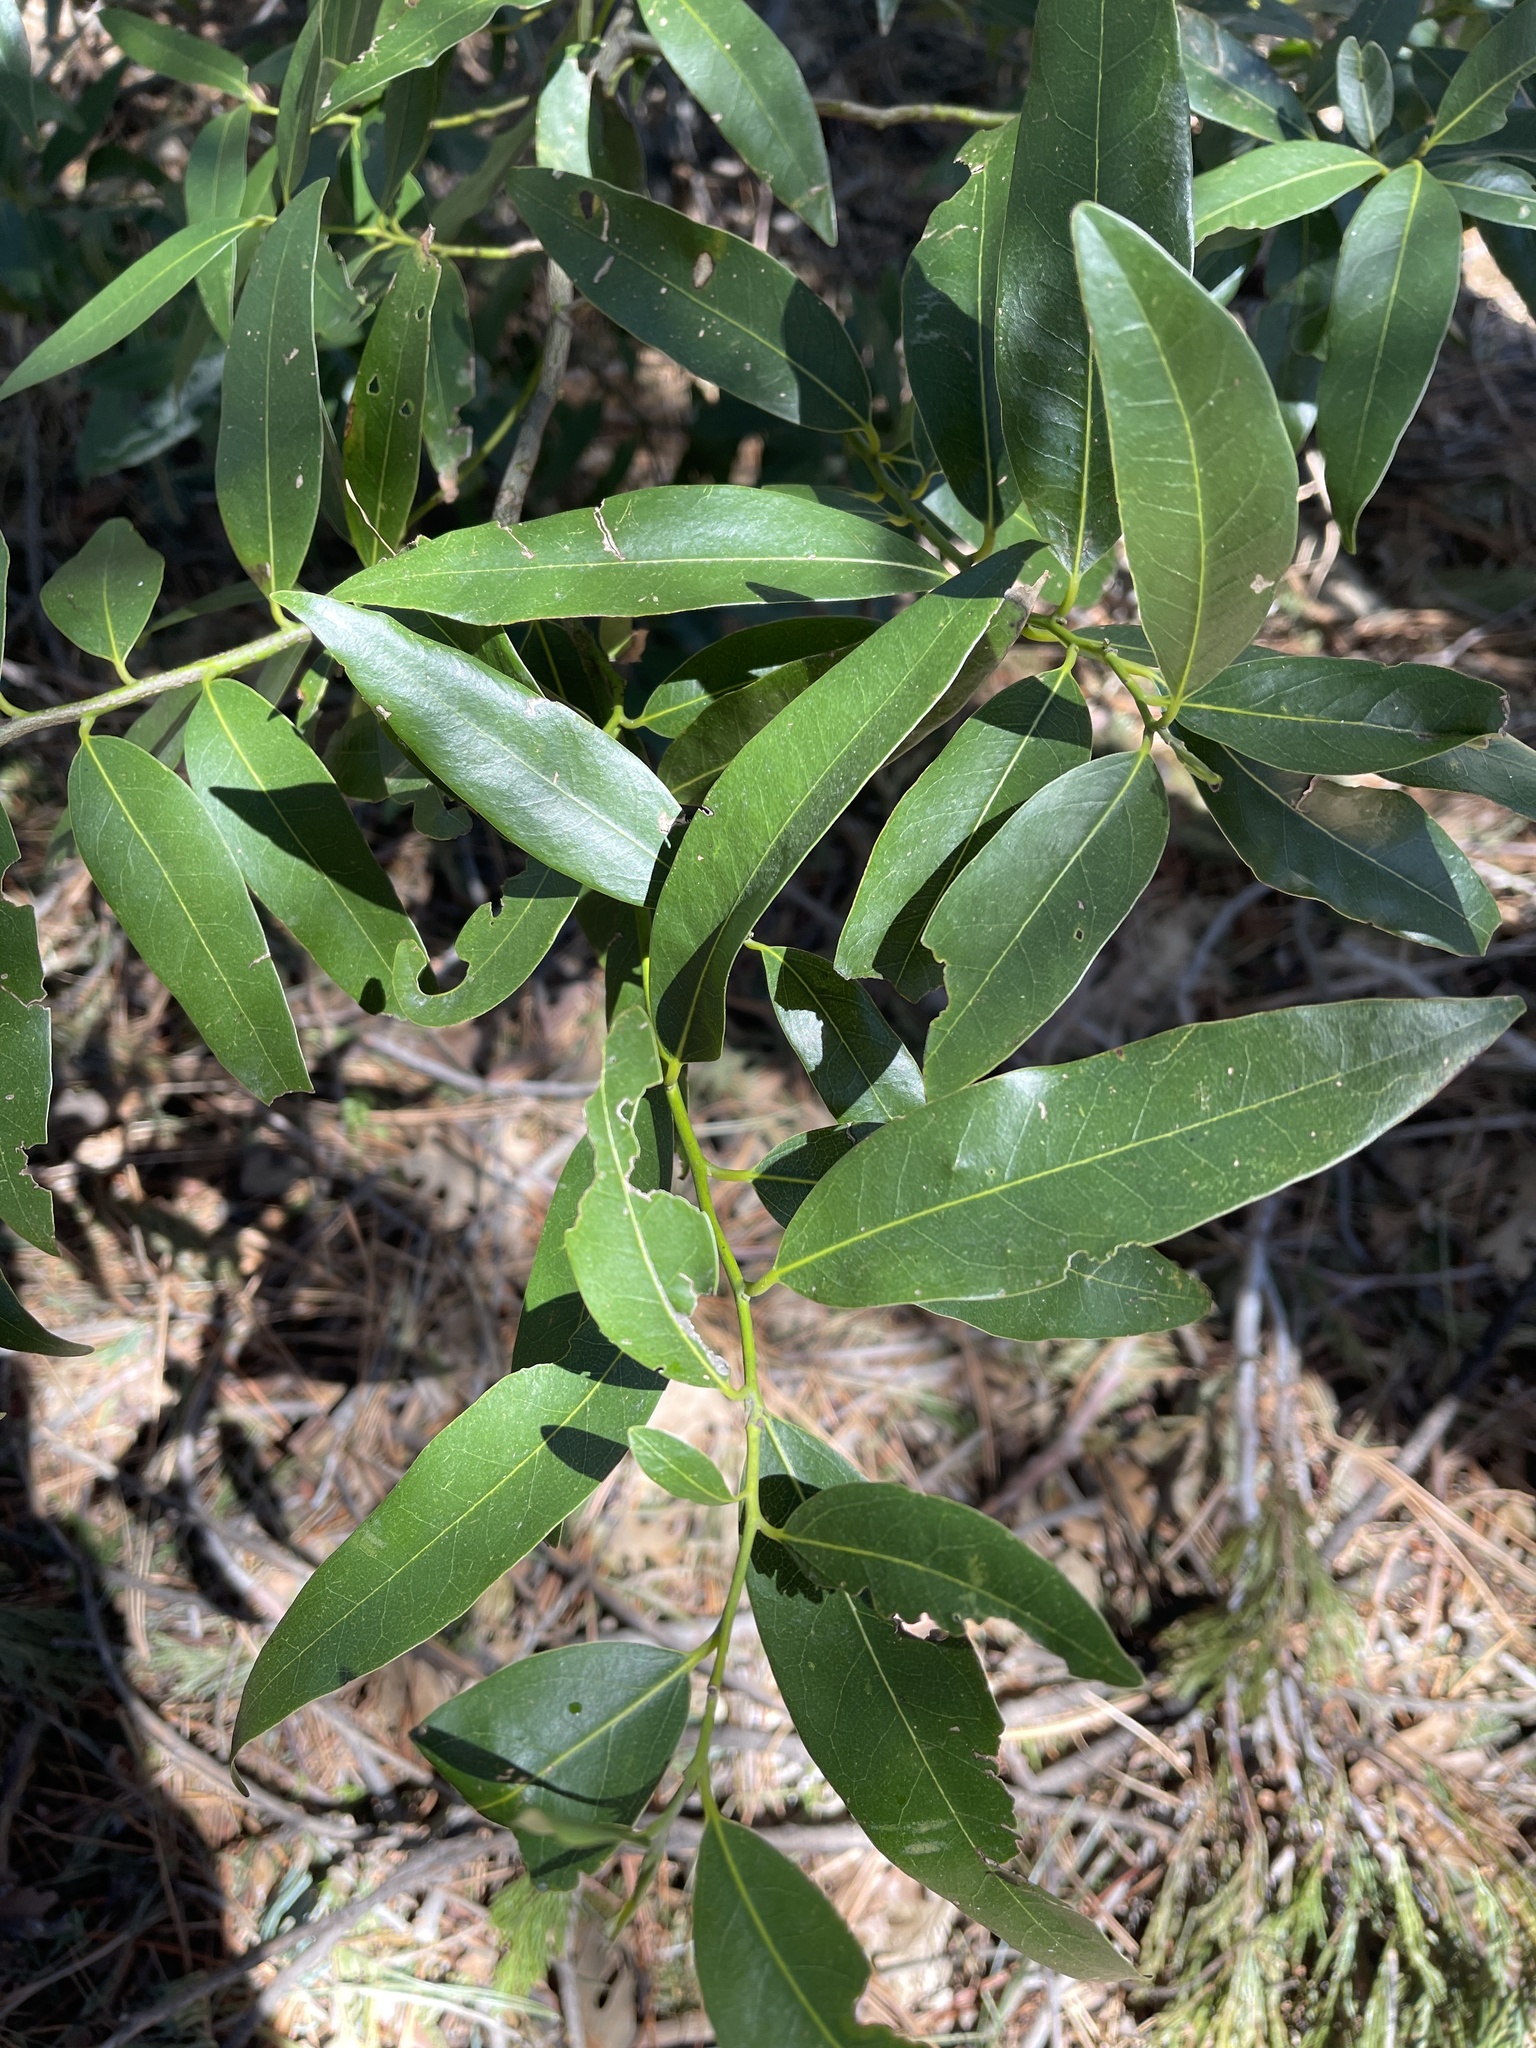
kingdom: Plantae
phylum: Tracheophyta
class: Magnoliopsida
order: Laurales
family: Lauraceae
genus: Umbellularia
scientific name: Umbellularia californica
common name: California bay
